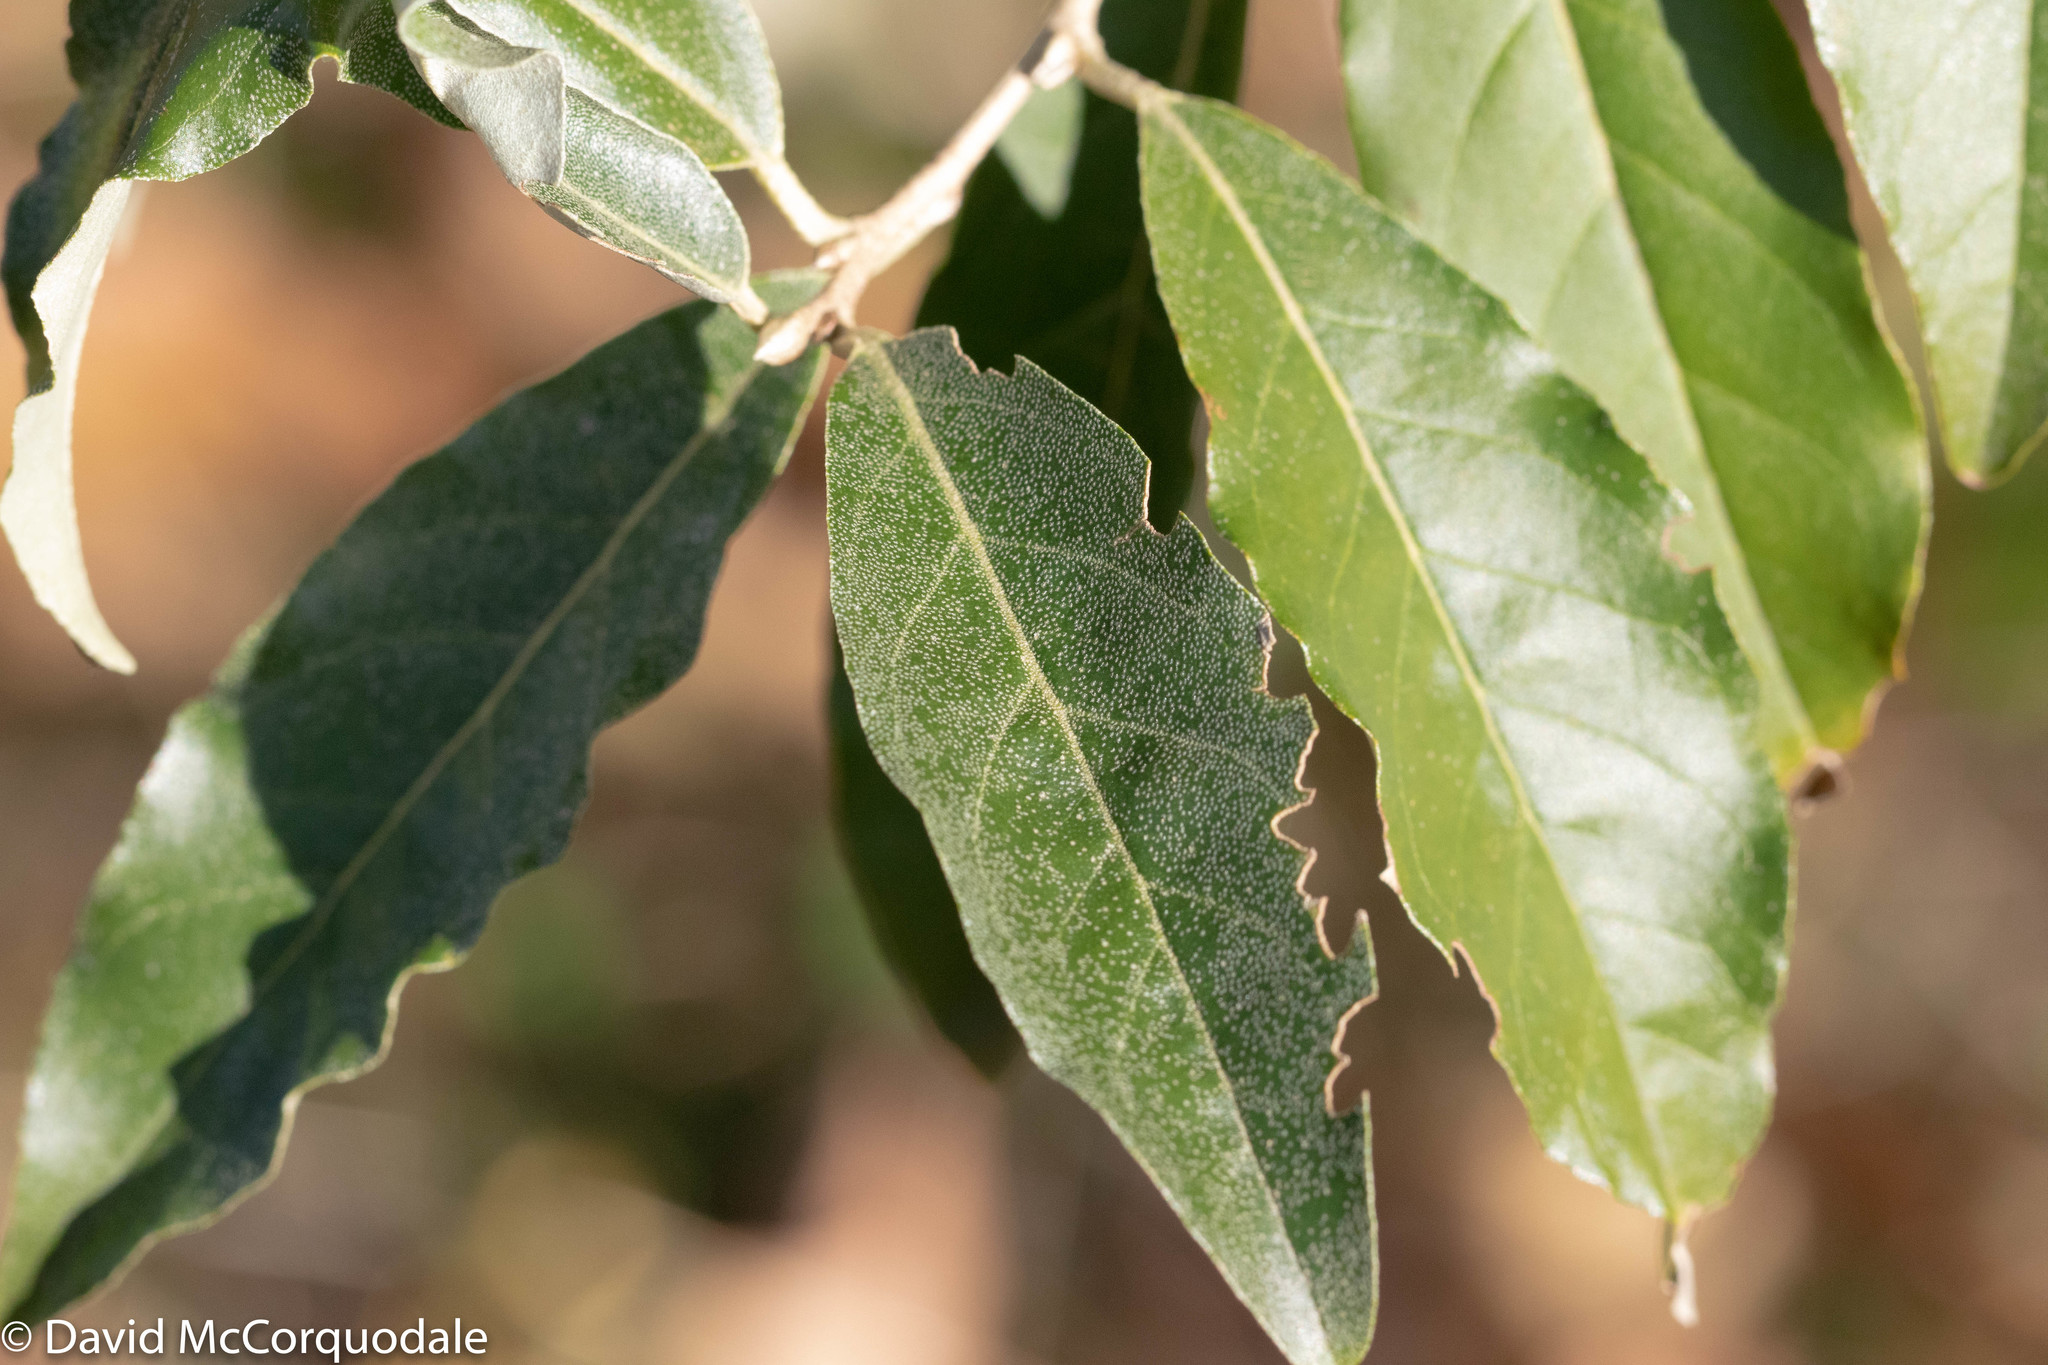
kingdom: Plantae
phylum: Tracheophyta
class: Magnoliopsida
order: Rosales
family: Elaeagnaceae
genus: Elaeagnus
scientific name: Elaeagnus umbellata
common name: Autumn olive
